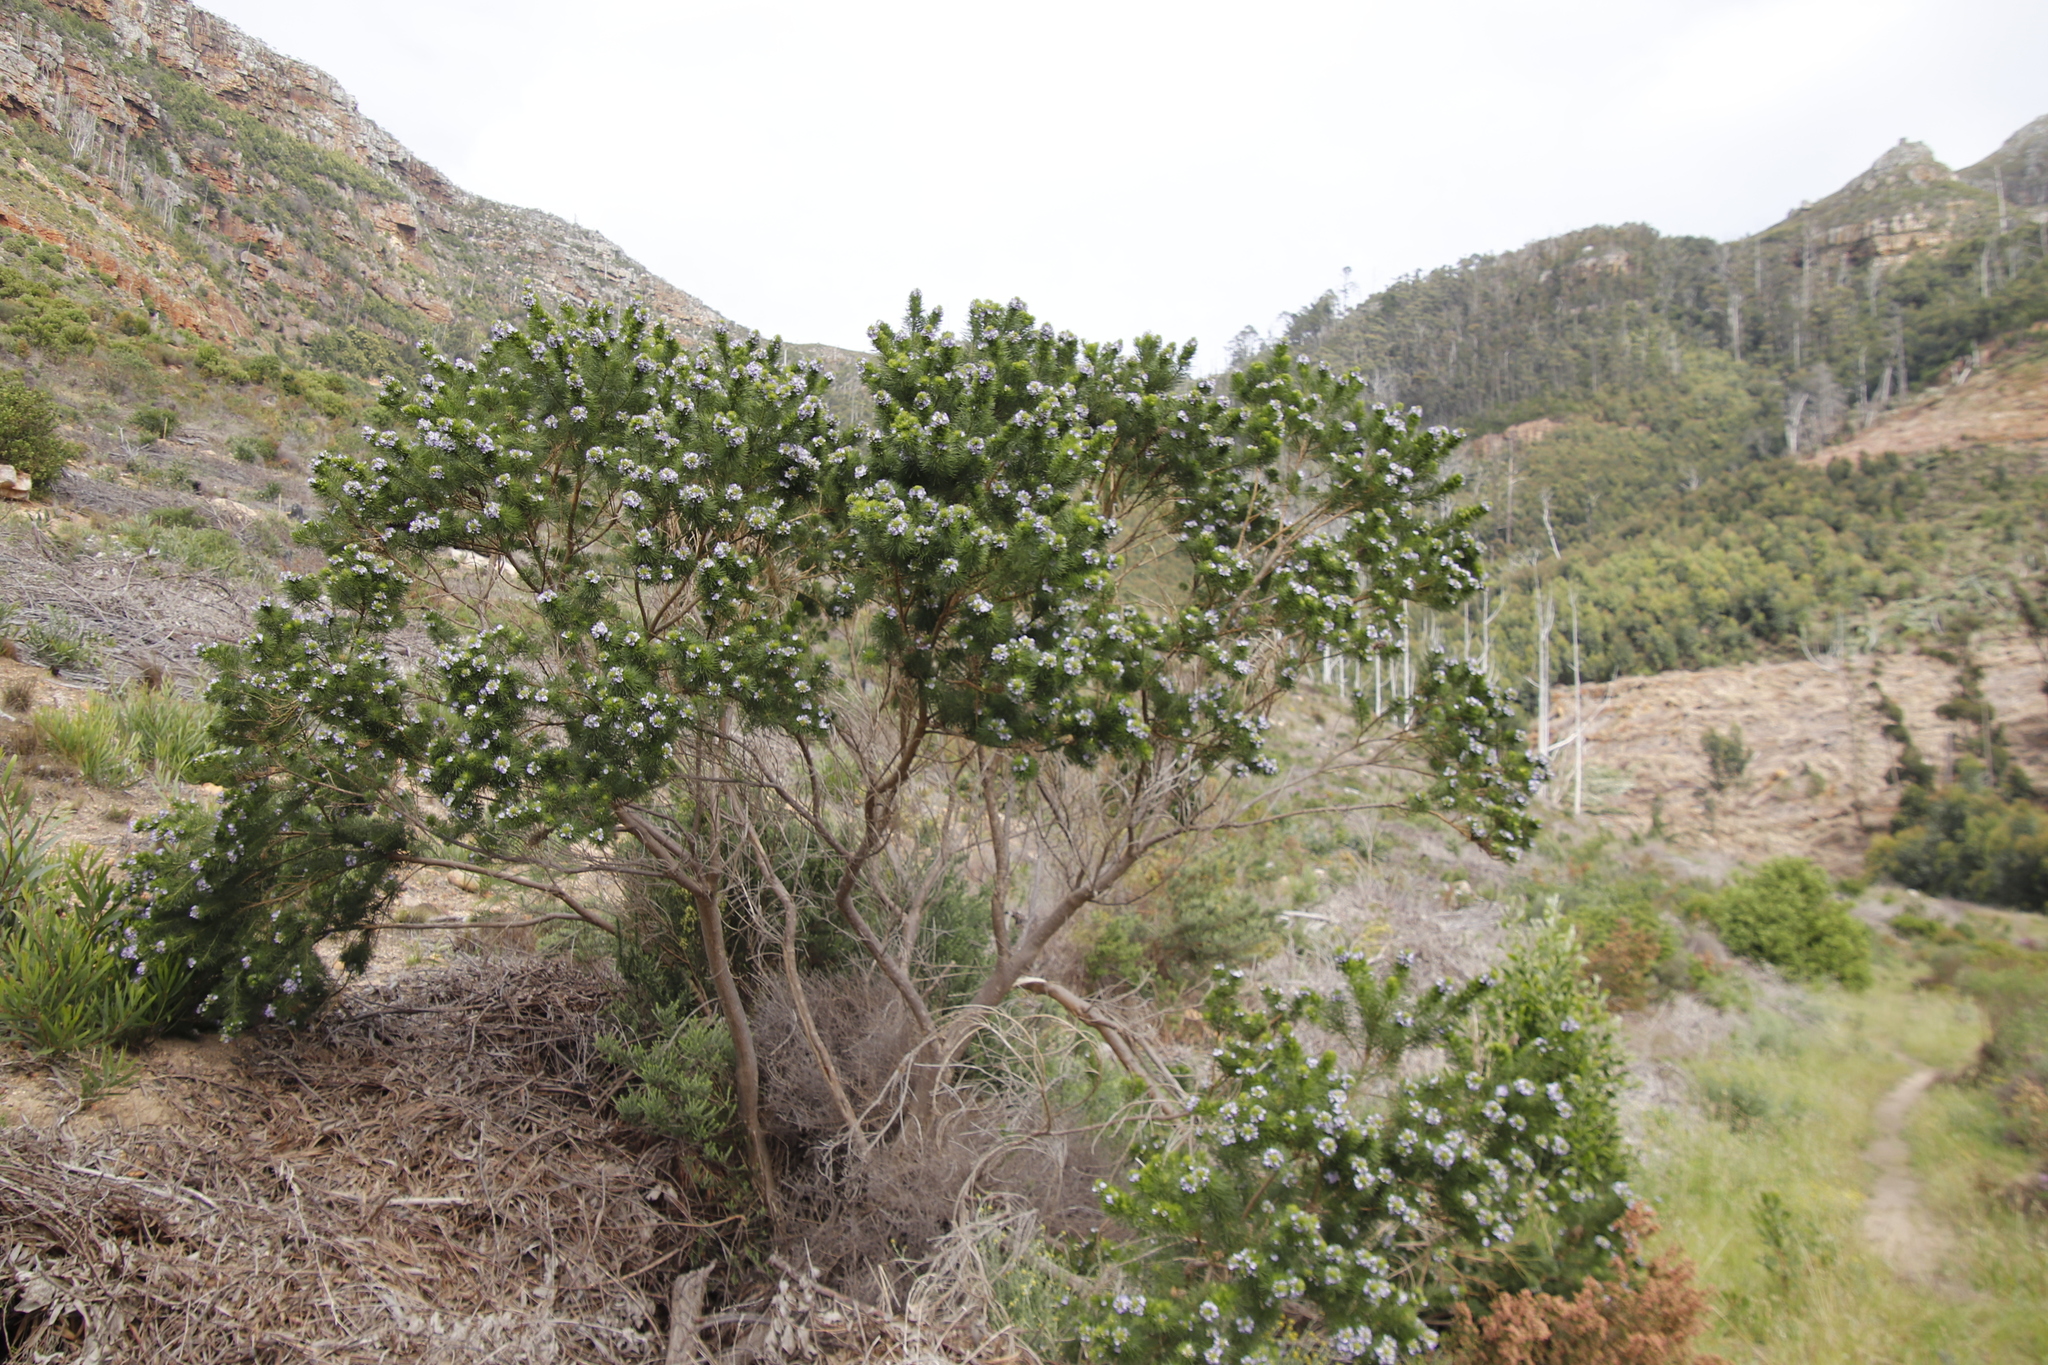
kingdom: Plantae
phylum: Tracheophyta
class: Magnoliopsida
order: Fabales
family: Fabaceae
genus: Psoralea
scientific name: Psoralea pinnata
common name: African scurfpea
